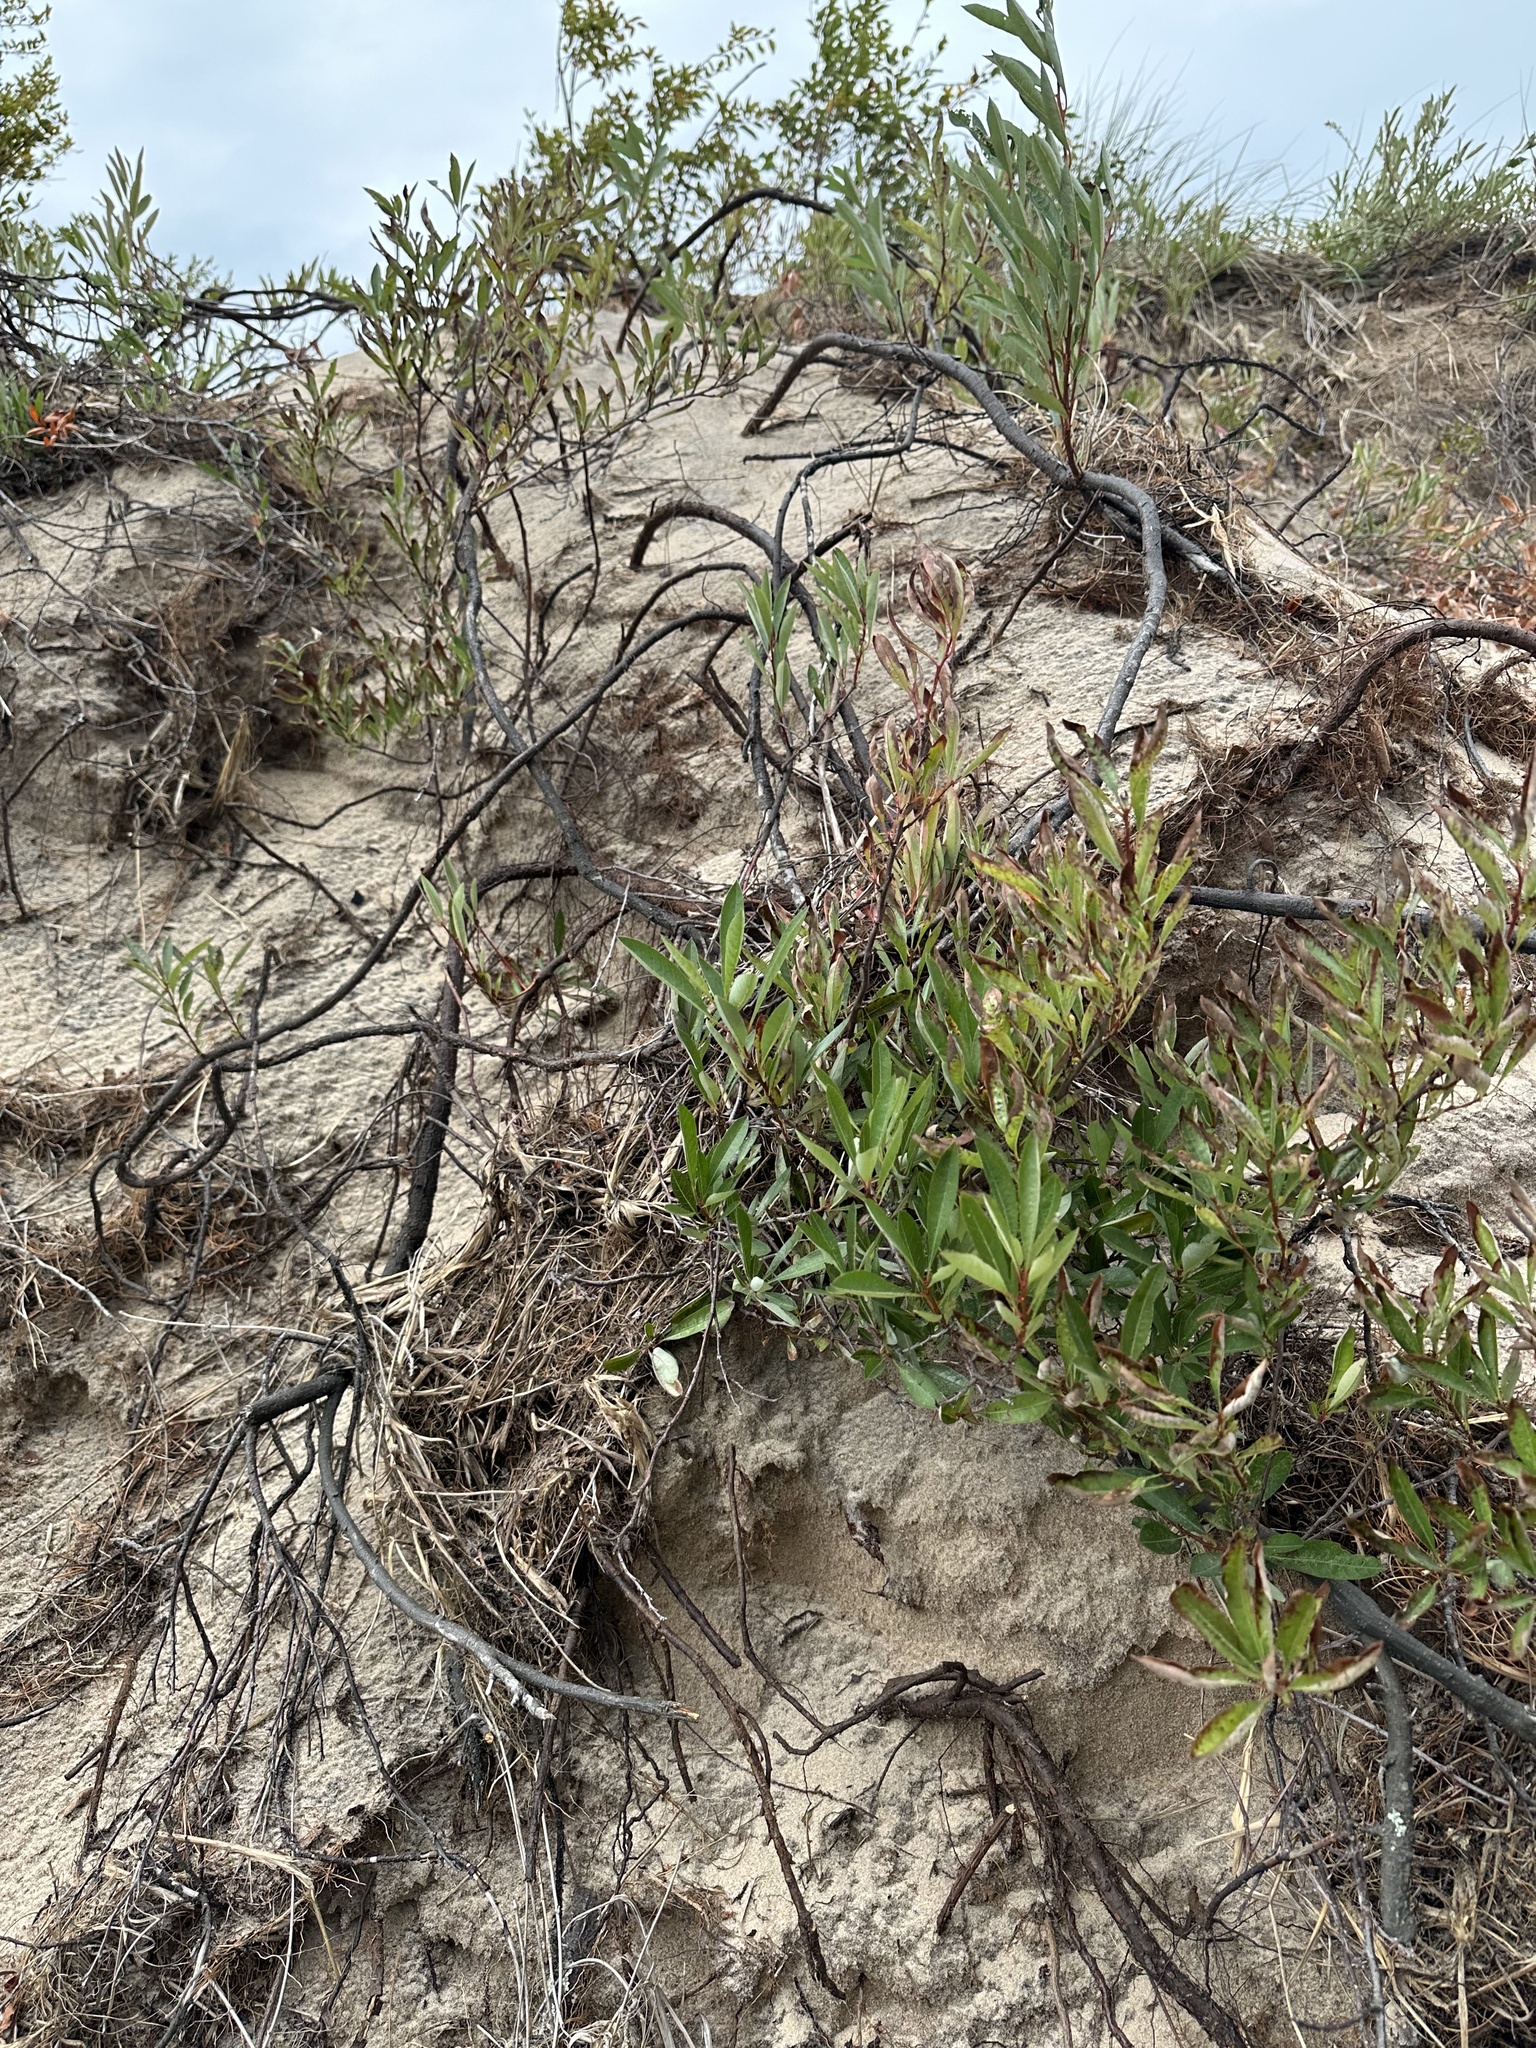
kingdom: Plantae
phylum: Tracheophyta
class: Magnoliopsida
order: Rosales
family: Rosaceae
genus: Prunus
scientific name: Prunus pumila
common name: Dwarf cherry
